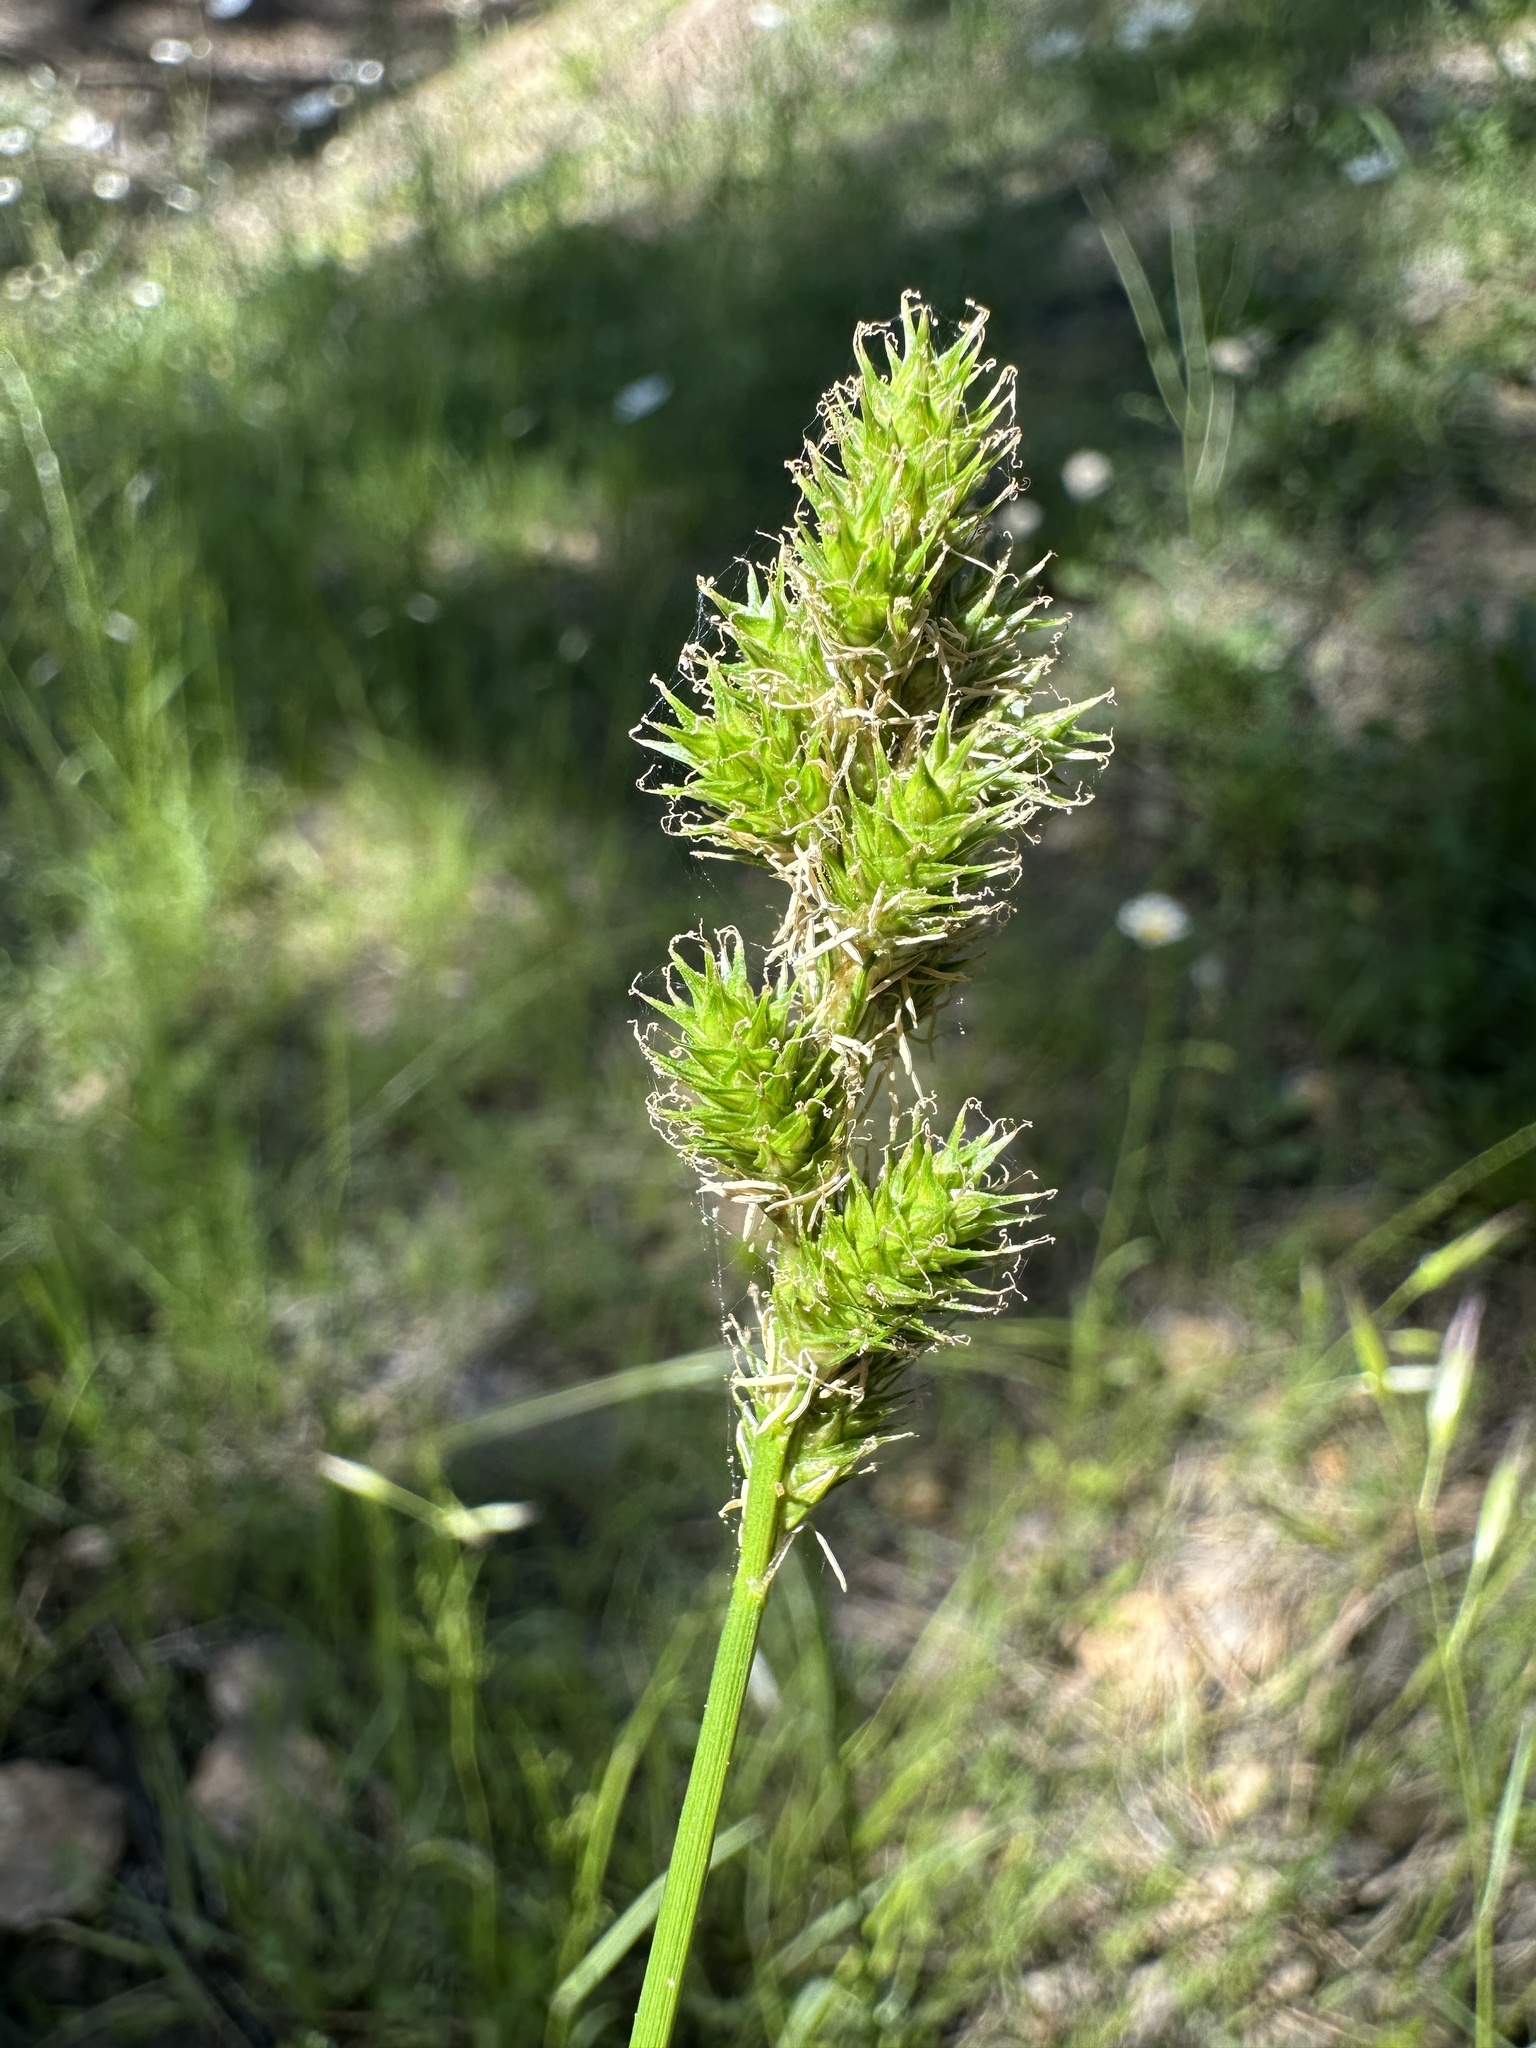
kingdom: Plantae
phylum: Tracheophyta
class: Liliopsida
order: Poales
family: Cyperaceae
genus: Carex
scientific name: Carex fracta
